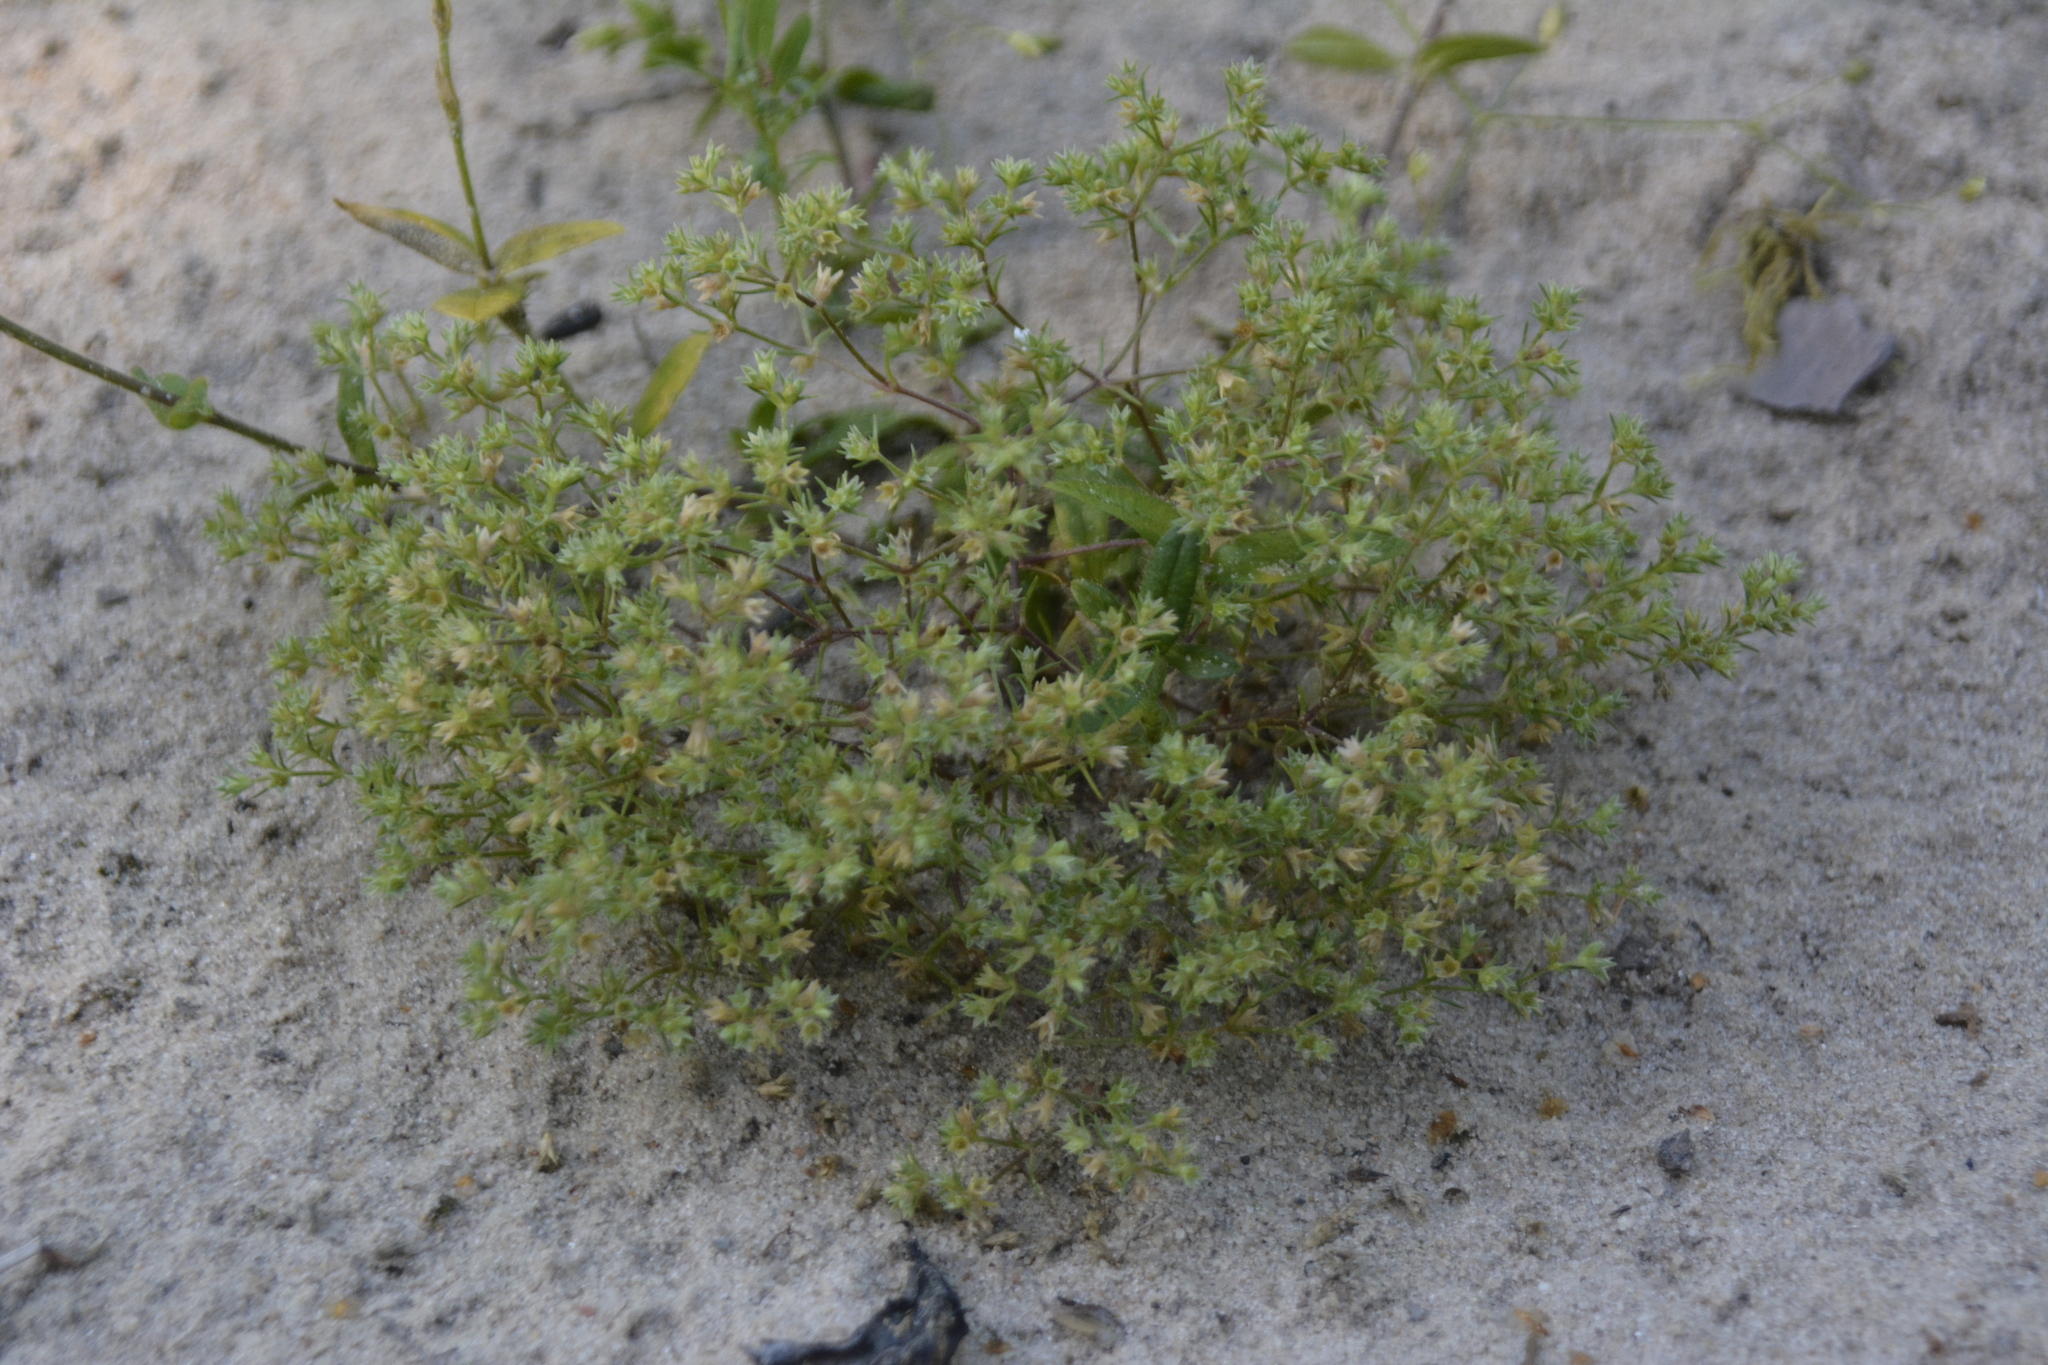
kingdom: Plantae
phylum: Tracheophyta
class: Magnoliopsida
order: Caryophyllales
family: Caryophyllaceae
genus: Scleranthus
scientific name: Scleranthus annuus
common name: Annual knawel
